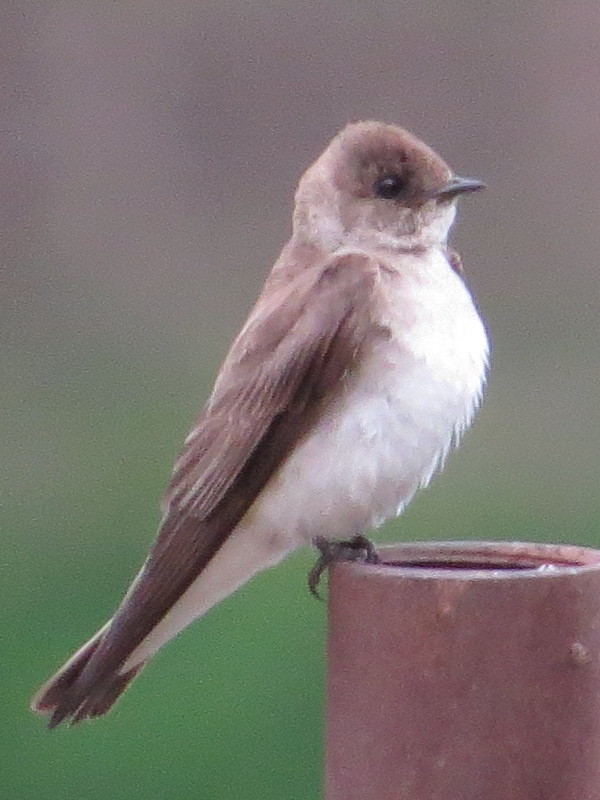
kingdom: Animalia
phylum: Chordata
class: Aves
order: Passeriformes
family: Hirundinidae
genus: Stelgidopteryx
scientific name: Stelgidopteryx serripennis
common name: Northern rough-winged swallow
